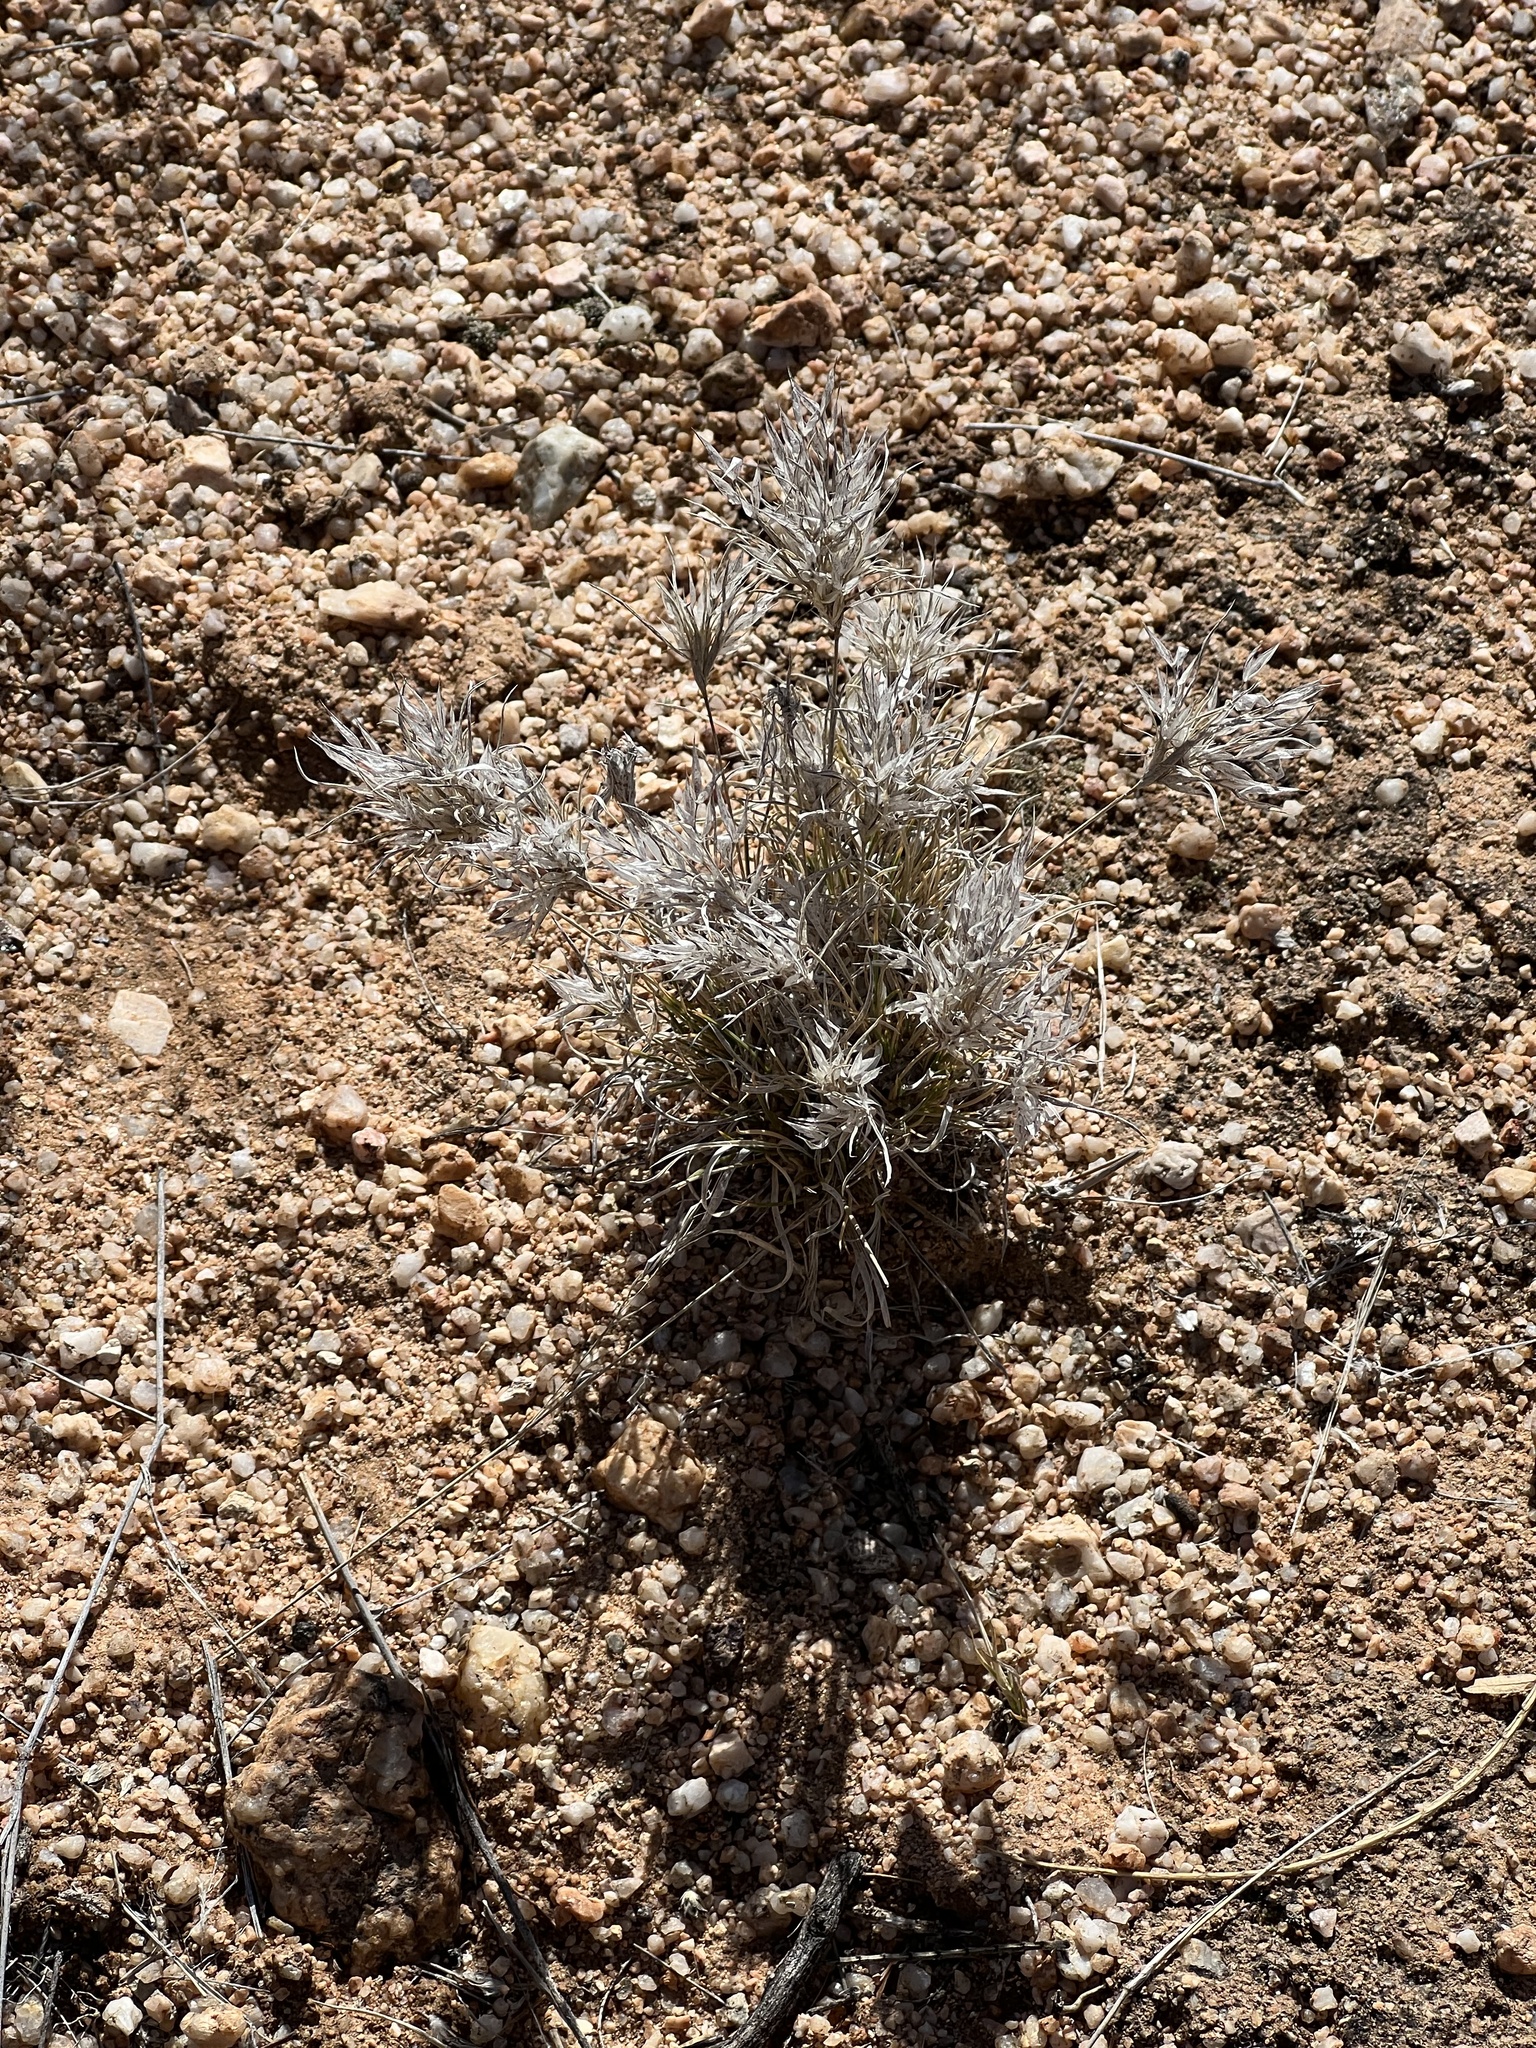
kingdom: Plantae
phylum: Tracheophyta
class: Liliopsida
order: Poales
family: Poaceae
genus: Dasyochloa
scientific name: Dasyochloa pulchella
